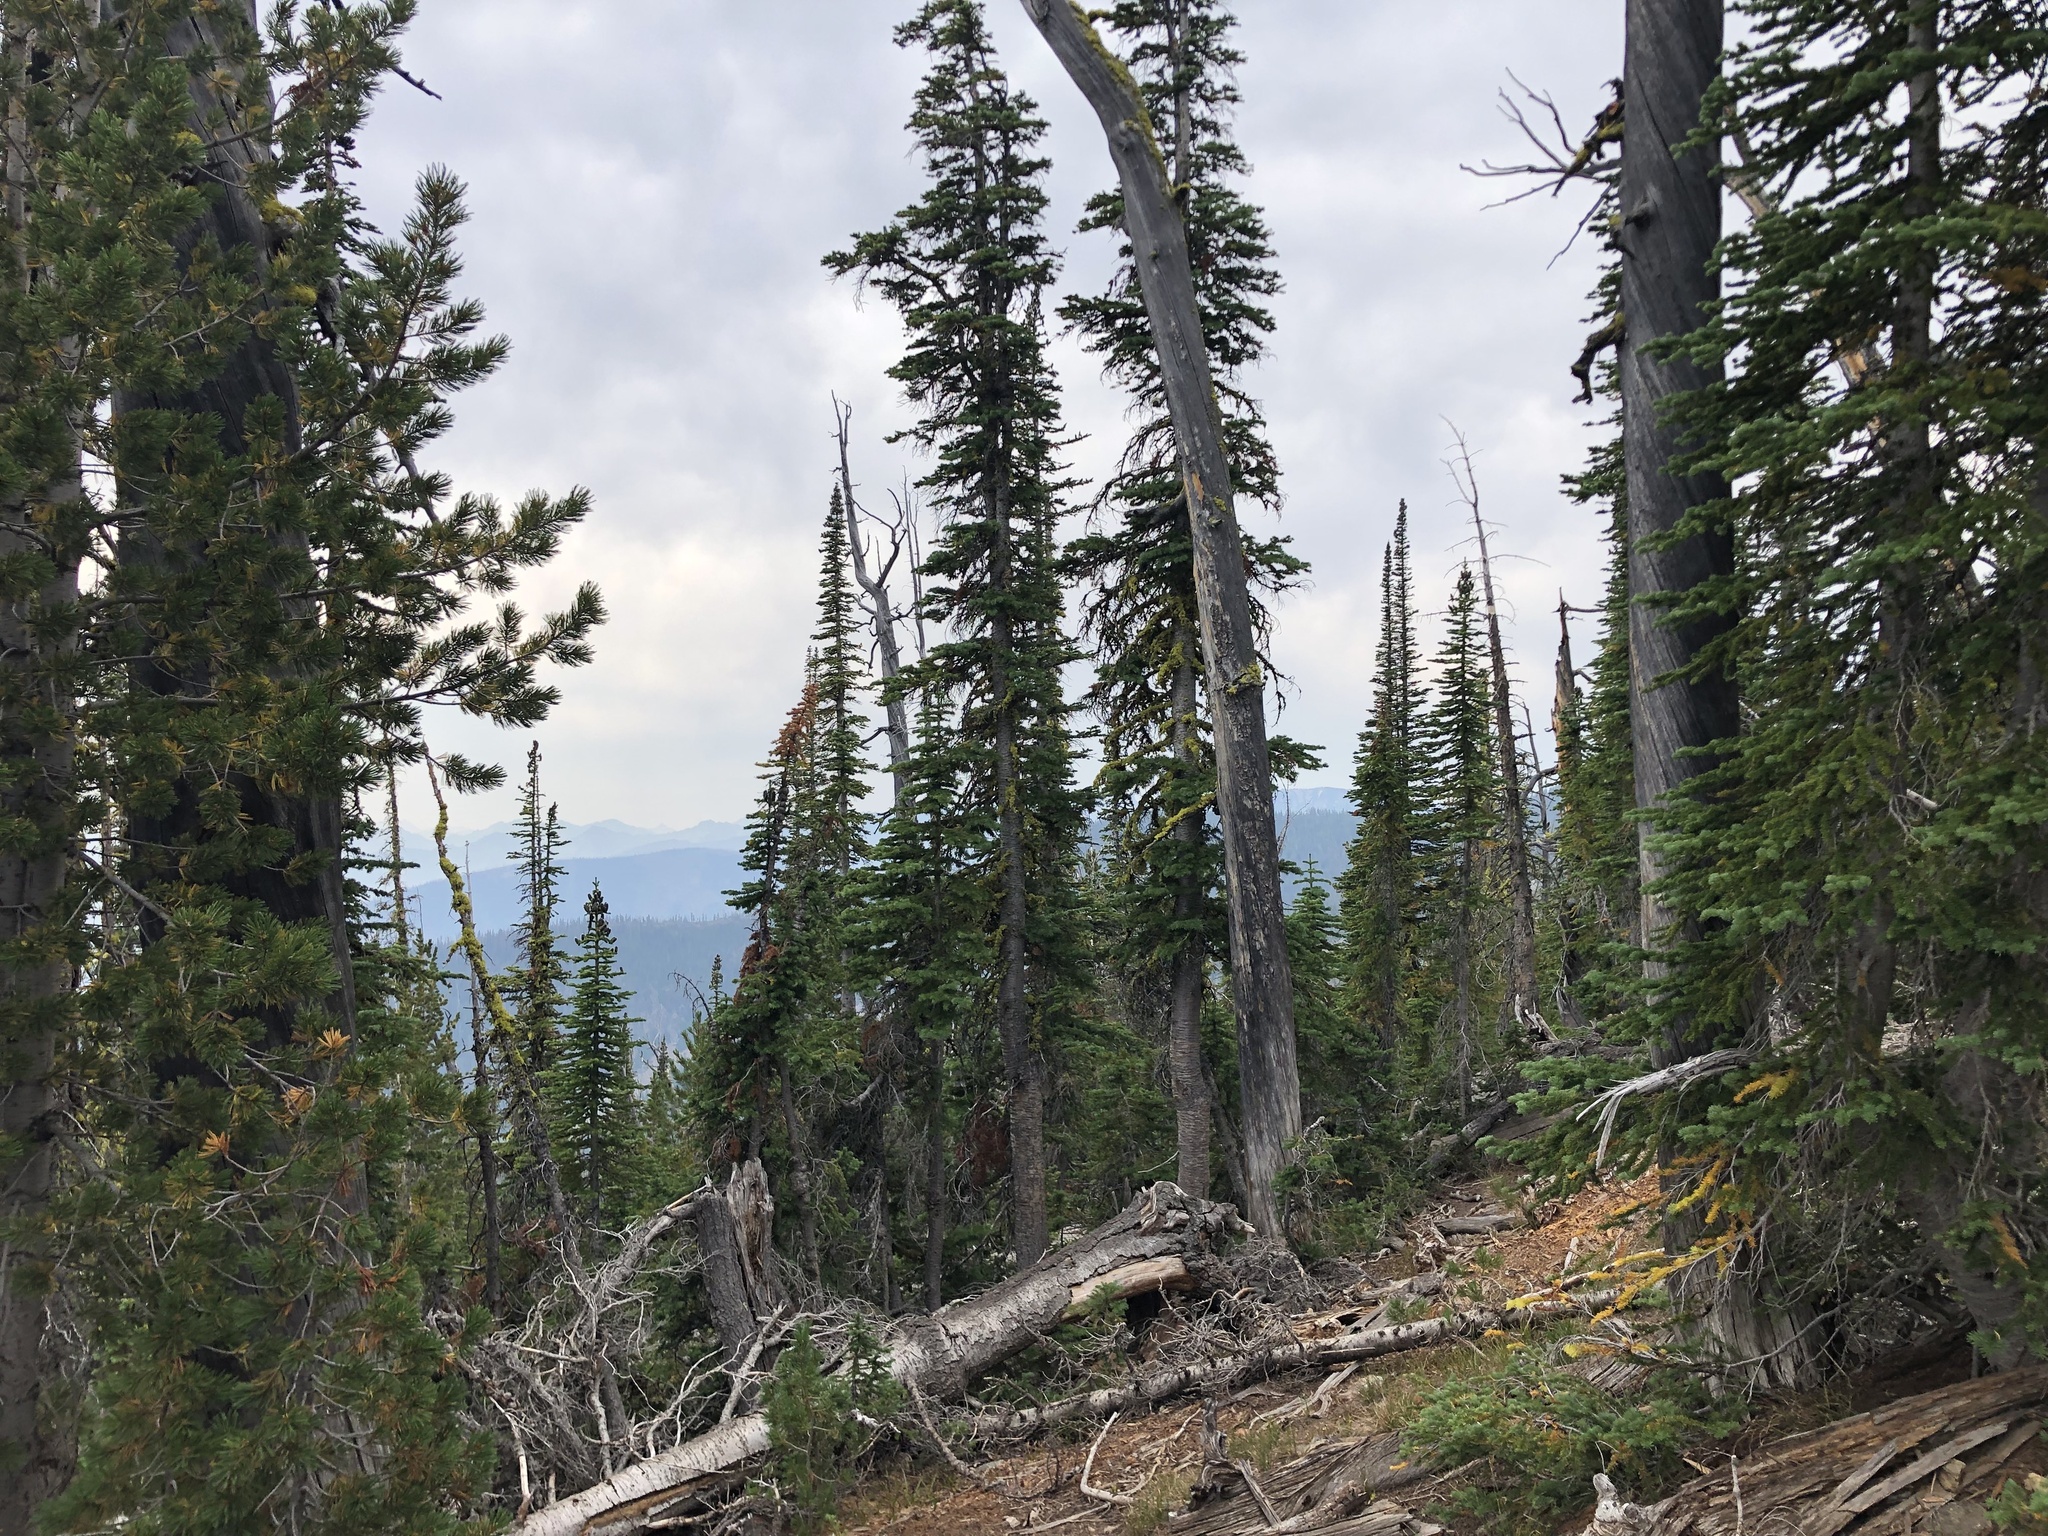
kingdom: Plantae
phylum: Tracheophyta
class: Magnoliopsida
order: Ericales
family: Ericaceae
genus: Rhododendron
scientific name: Rhododendron columbianum
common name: Western labrador tea
